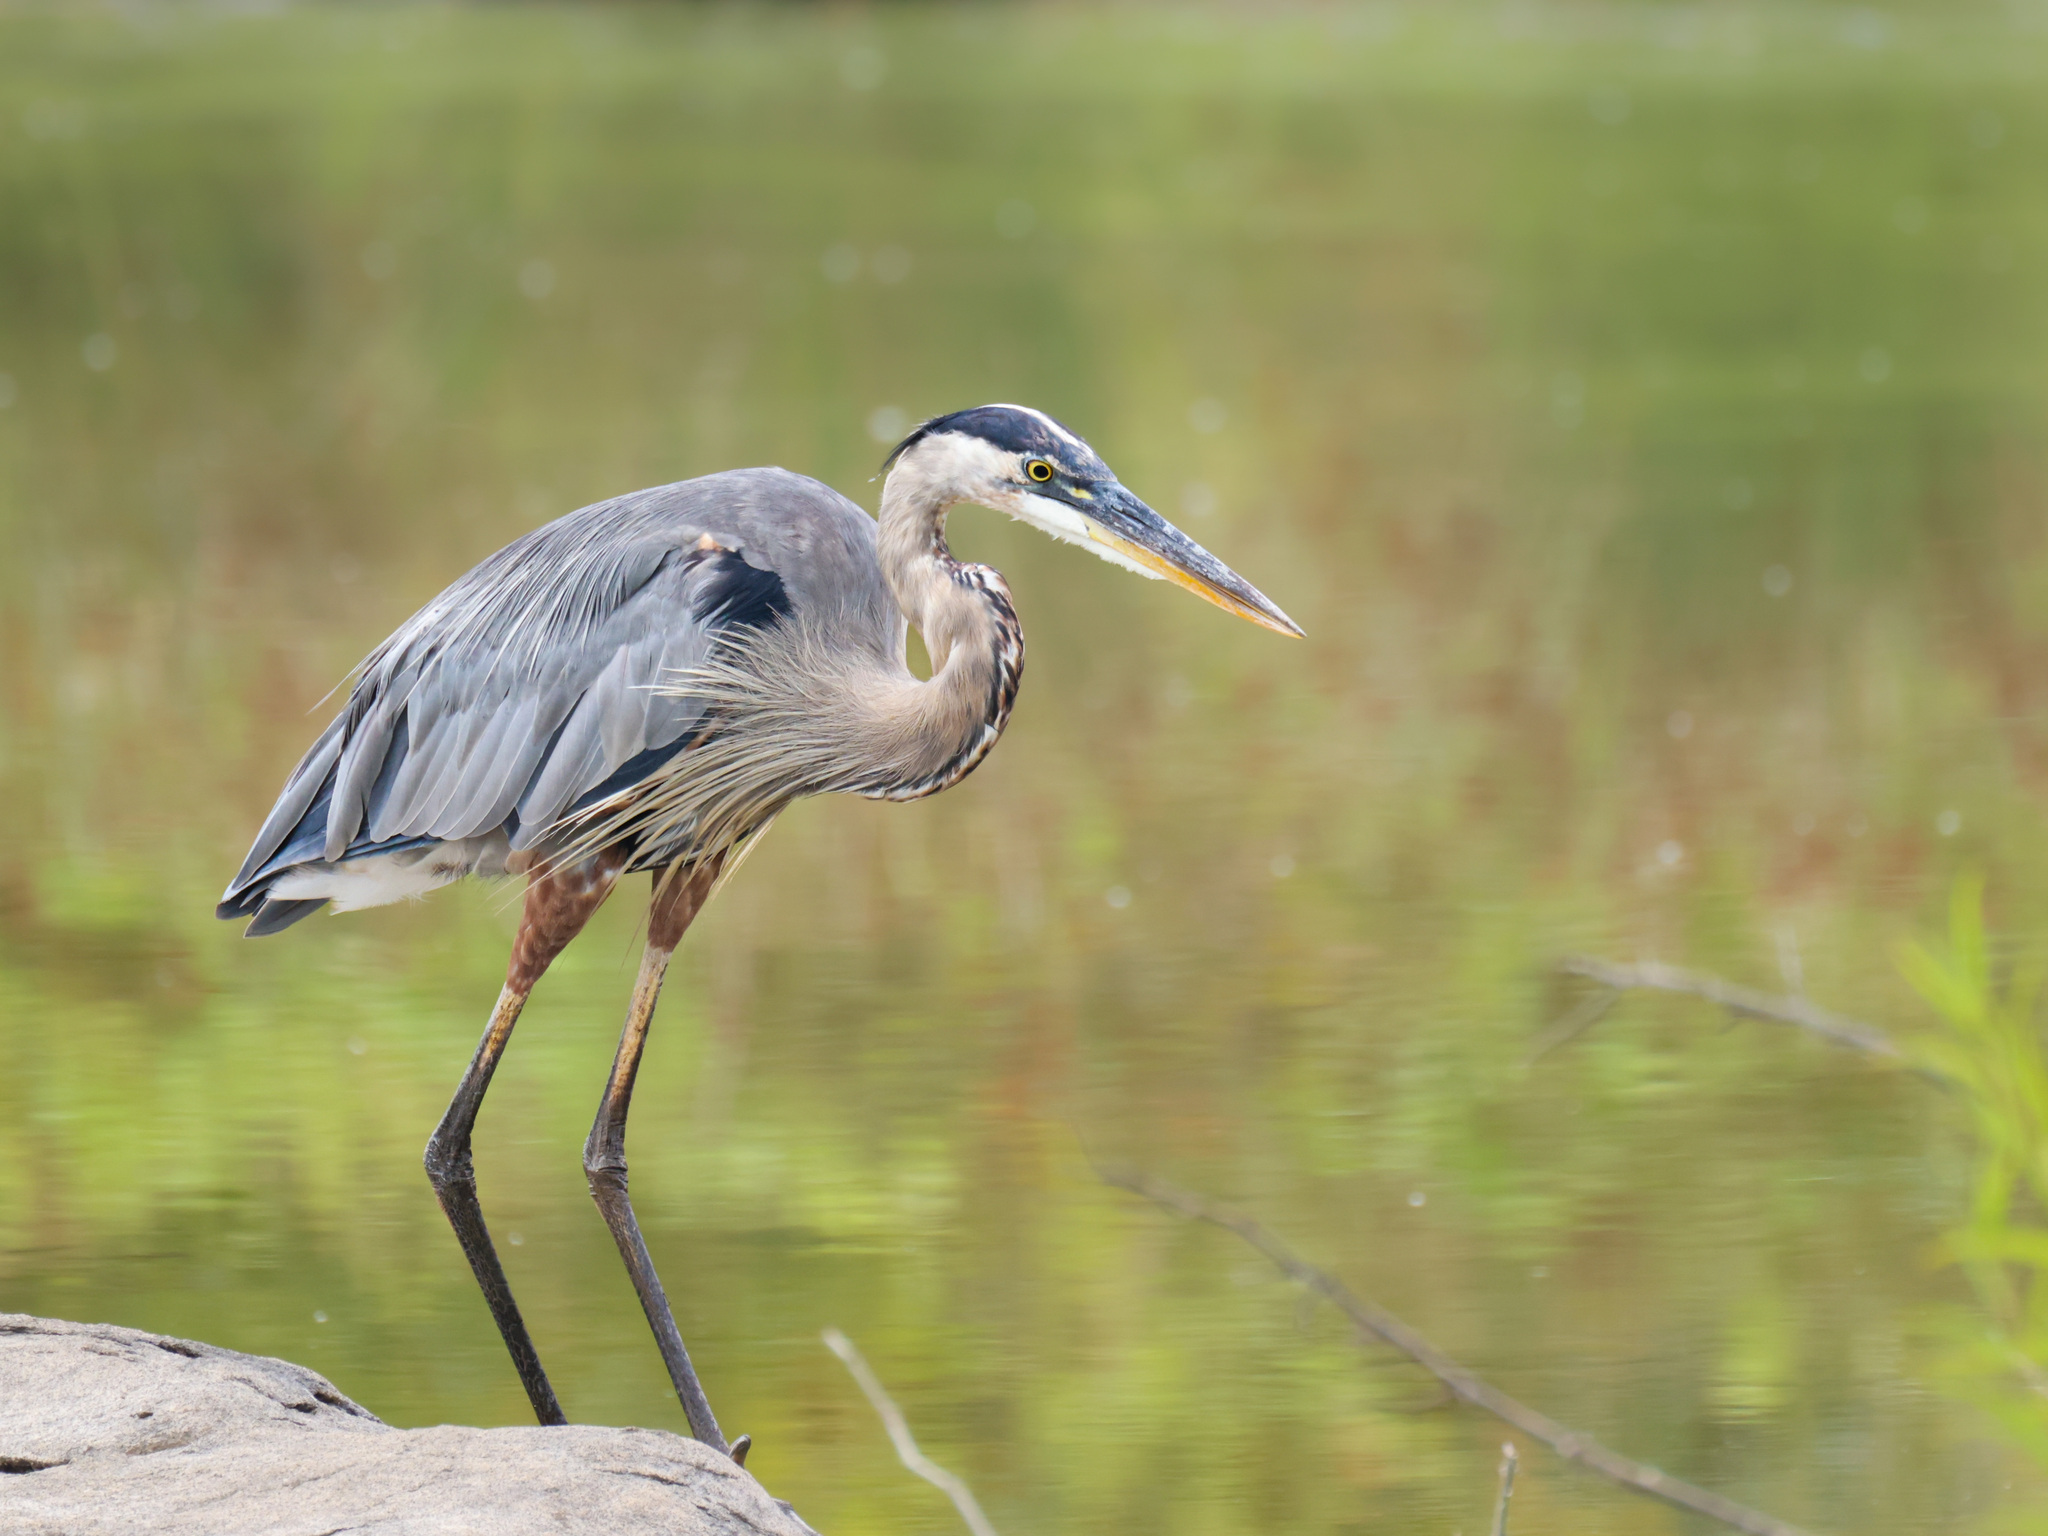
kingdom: Animalia
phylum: Chordata
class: Aves
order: Pelecaniformes
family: Ardeidae
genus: Ardea
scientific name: Ardea herodias
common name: Great blue heron
